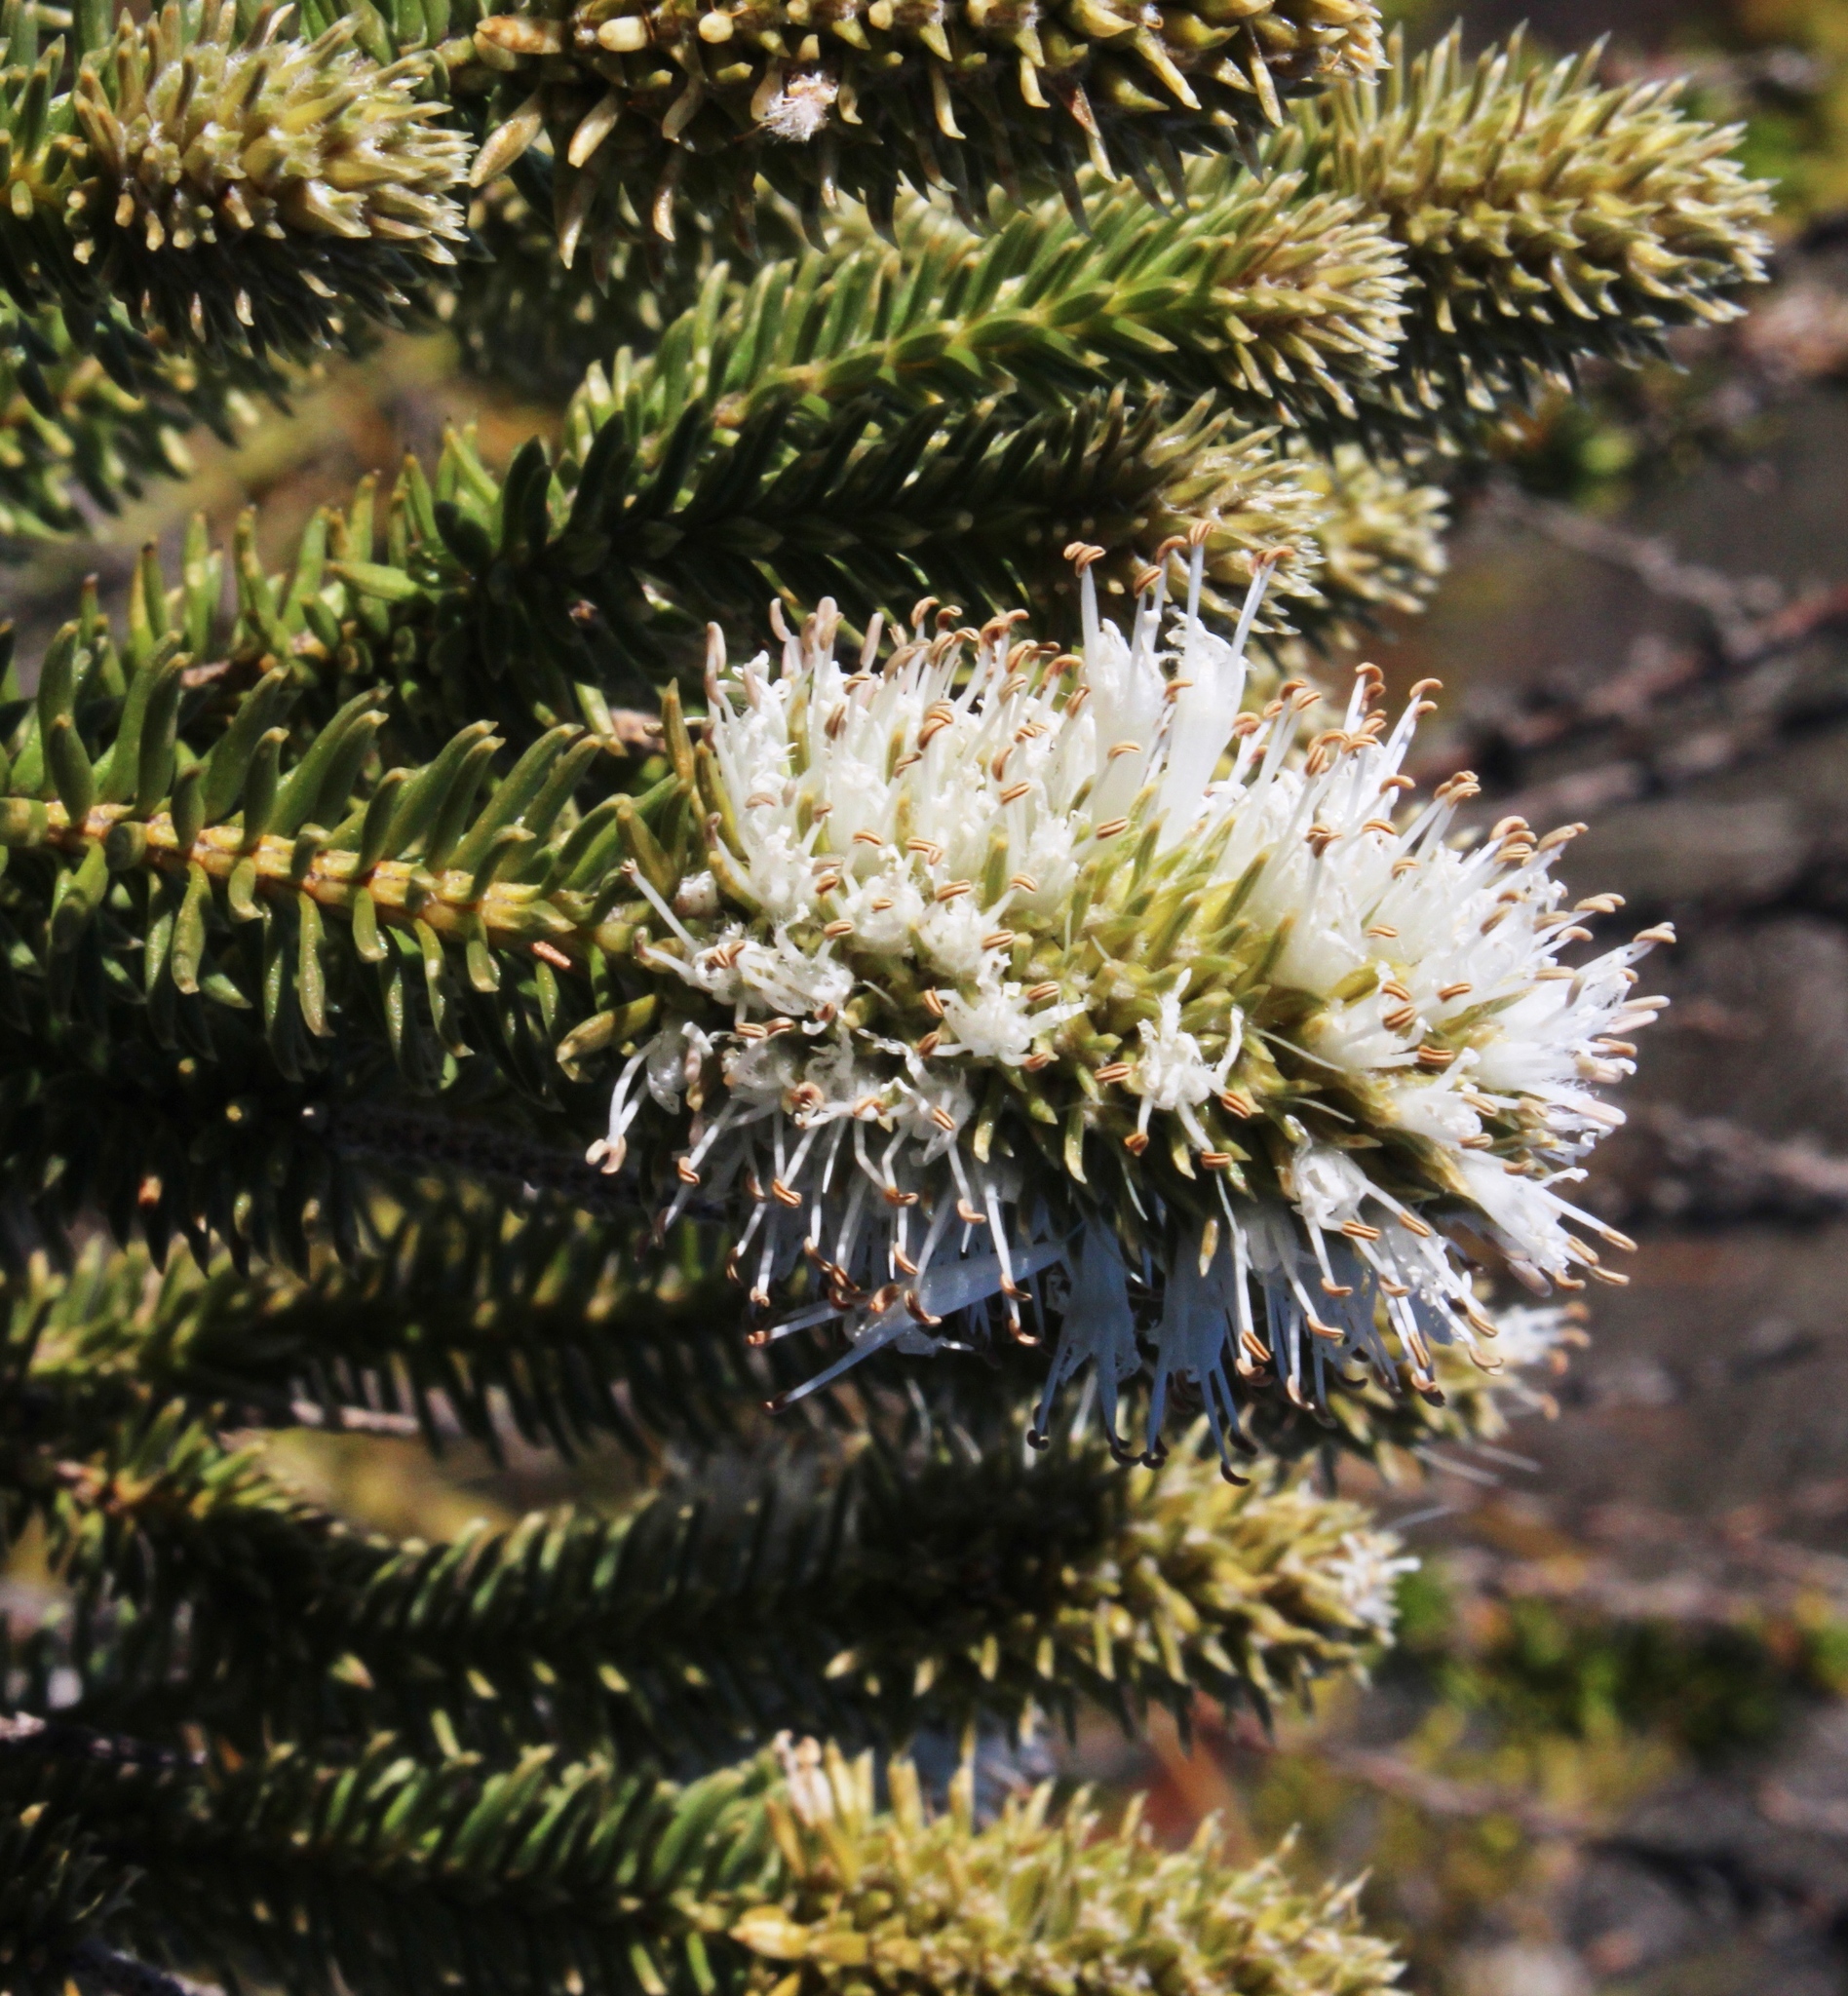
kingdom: Plantae
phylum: Tracheophyta
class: Magnoliopsida
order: Lamiales
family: Stilbaceae
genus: Stilbe
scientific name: Stilbe vestita
